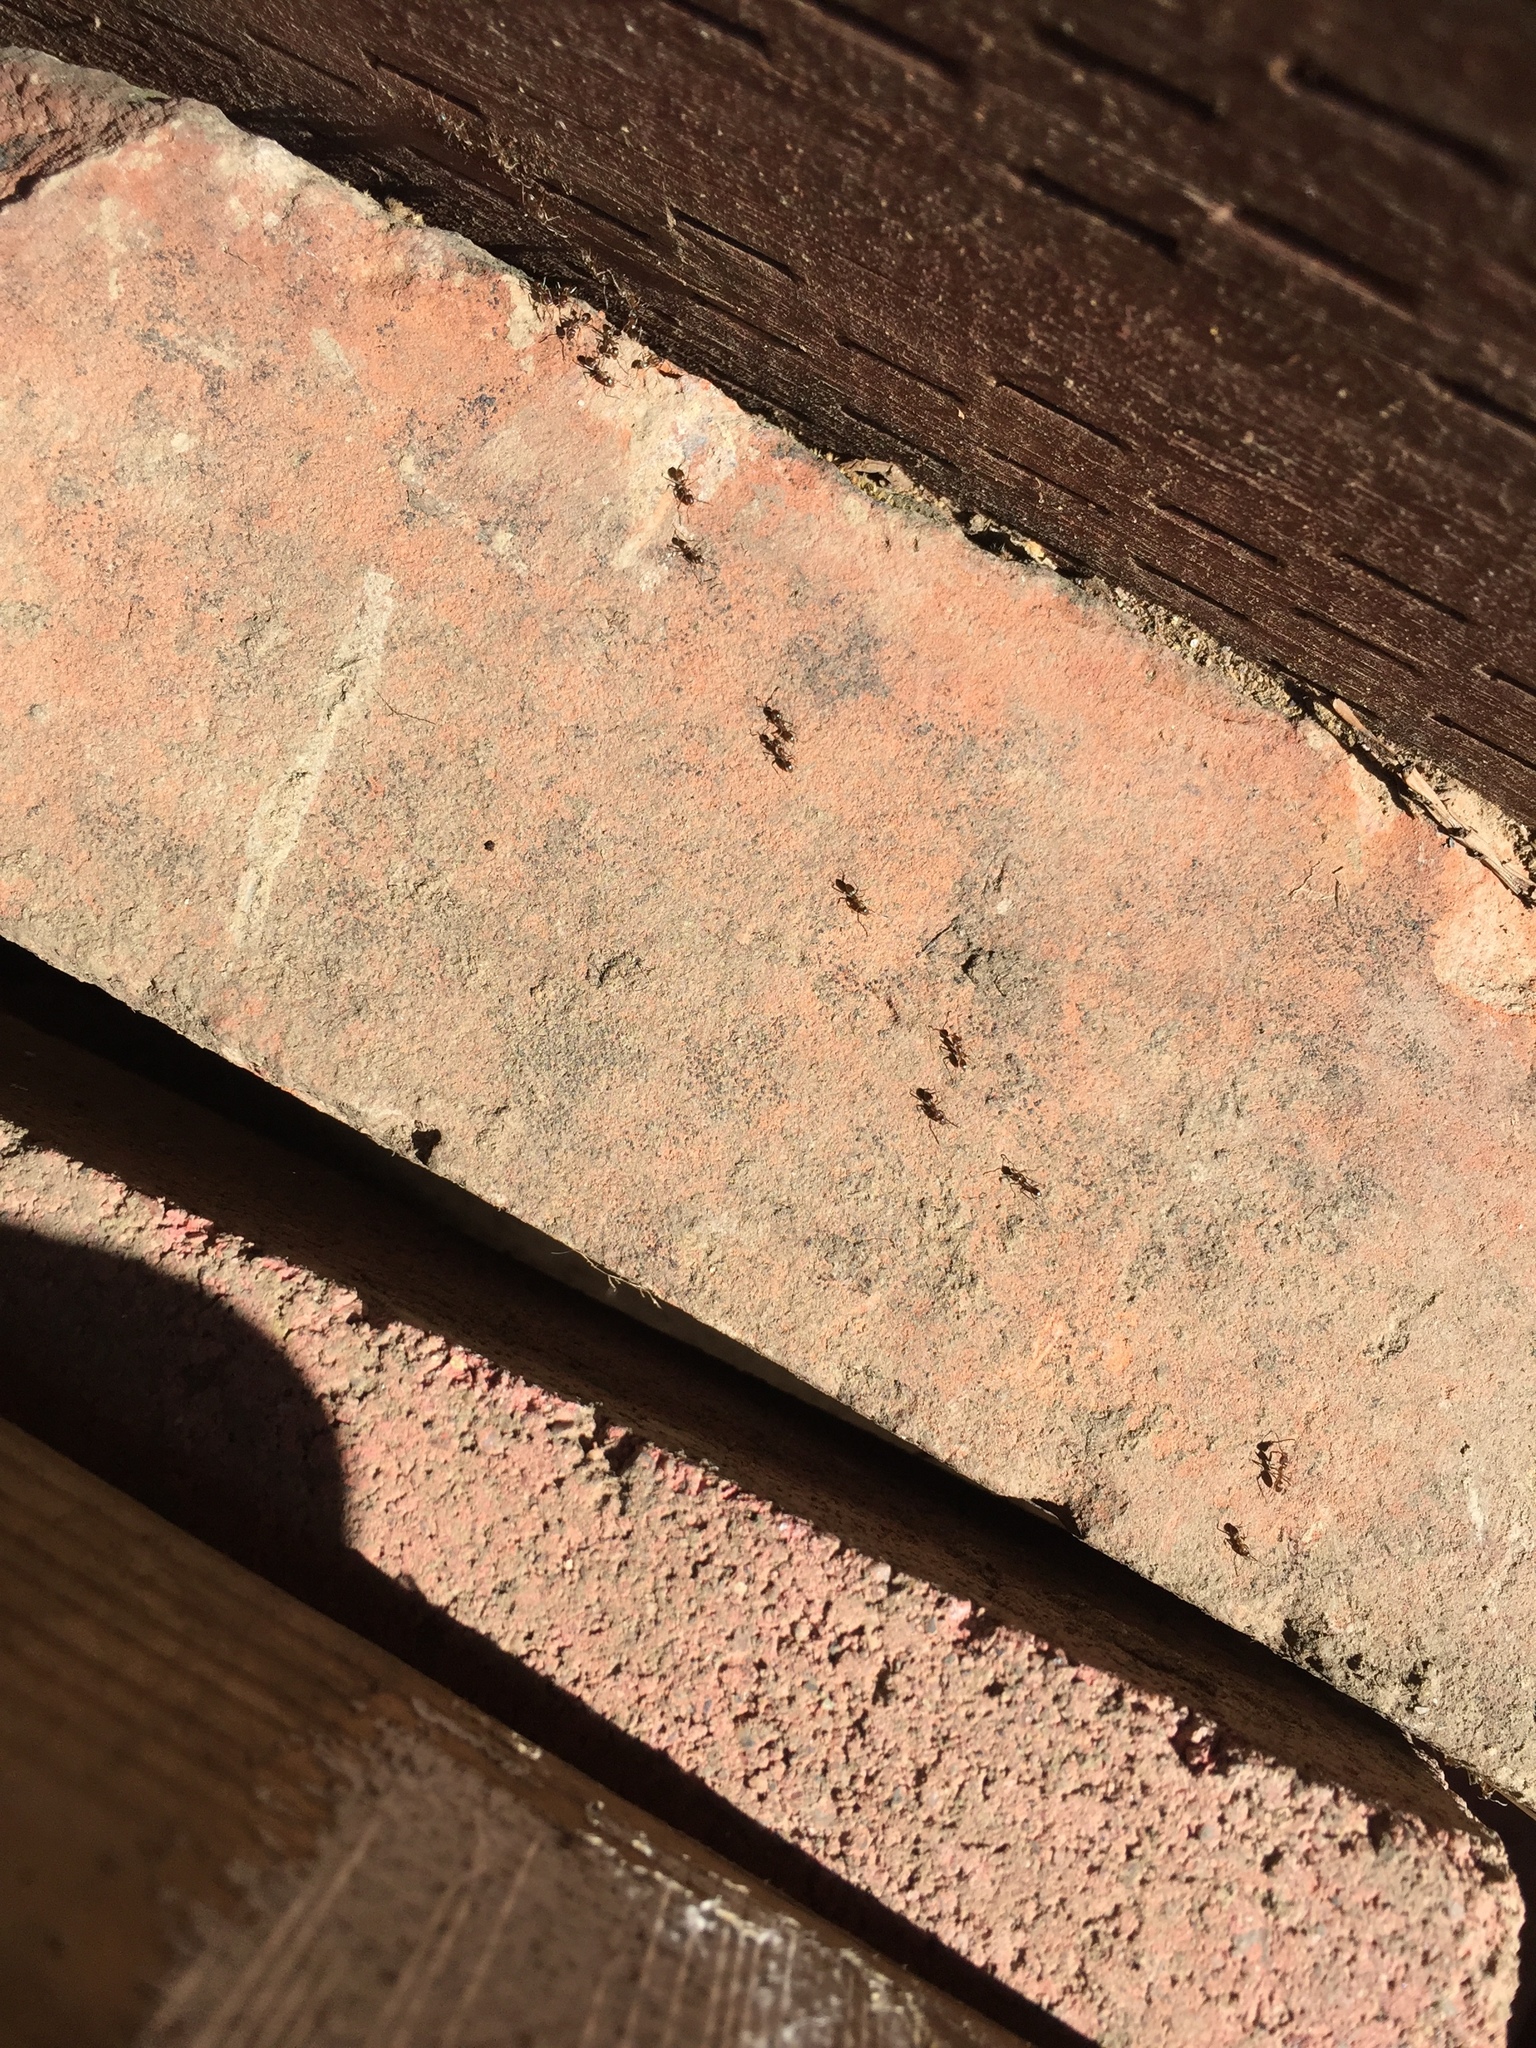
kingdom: Animalia
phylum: Arthropoda
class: Insecta
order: Hymenoptera
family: Formicidae
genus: Linepithema
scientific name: Linepithema humile
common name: Argentine ant
